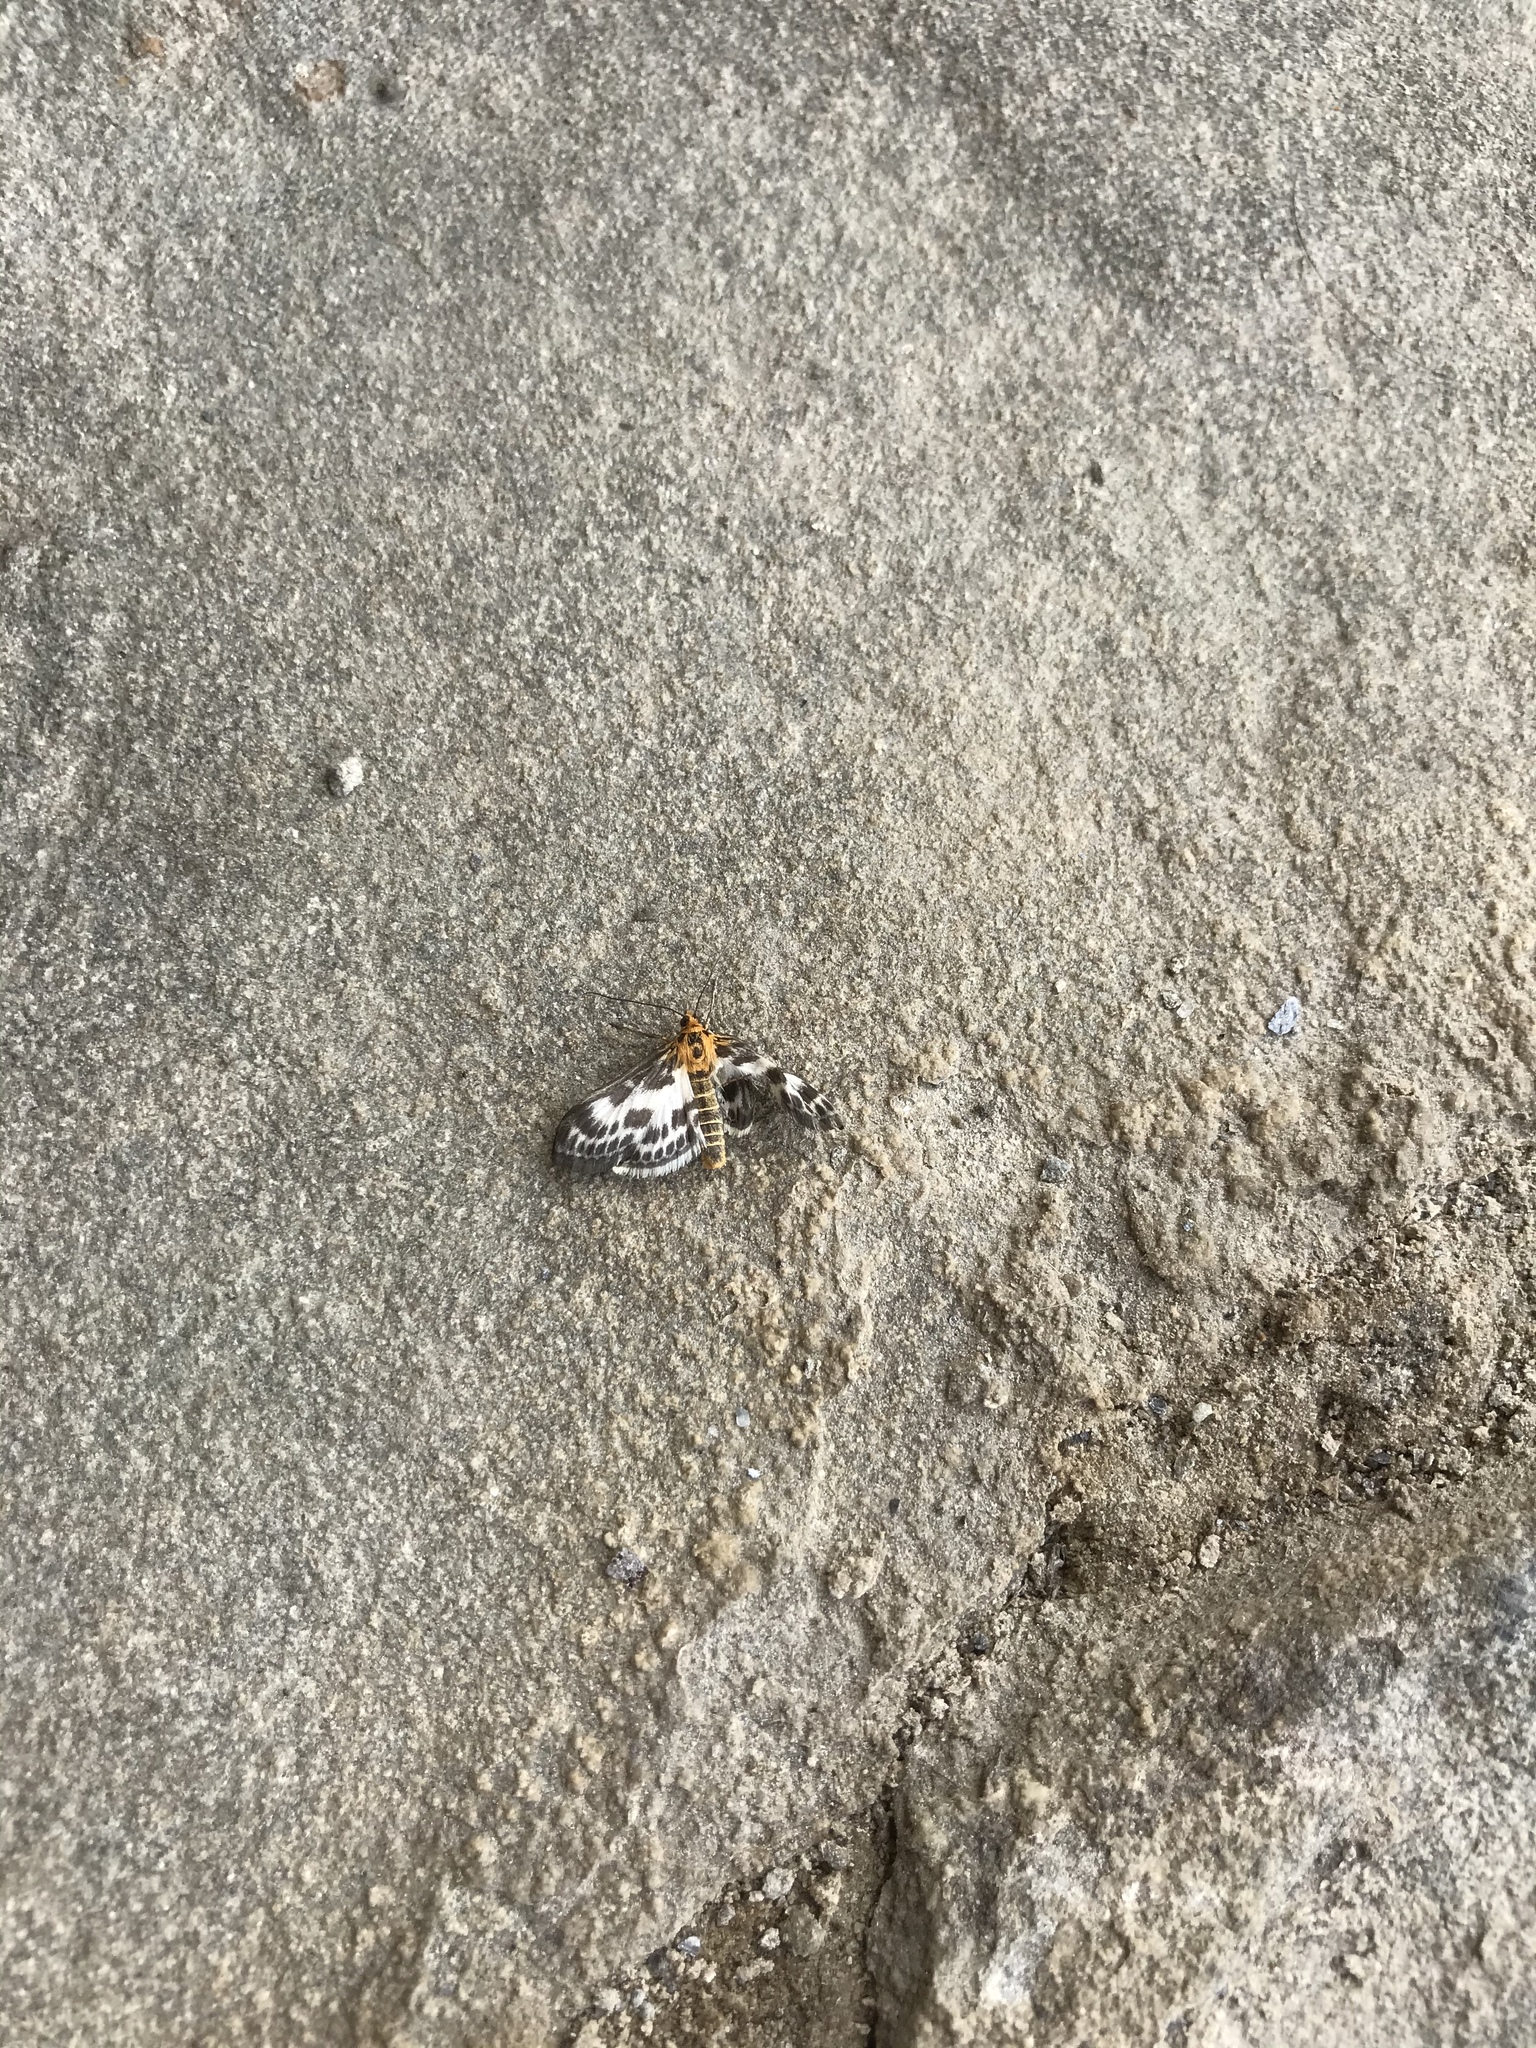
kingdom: Animalia
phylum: Arthropoda
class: Insecta
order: Lepidoptera
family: Crambidae
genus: Anania
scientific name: Anania hortulata
